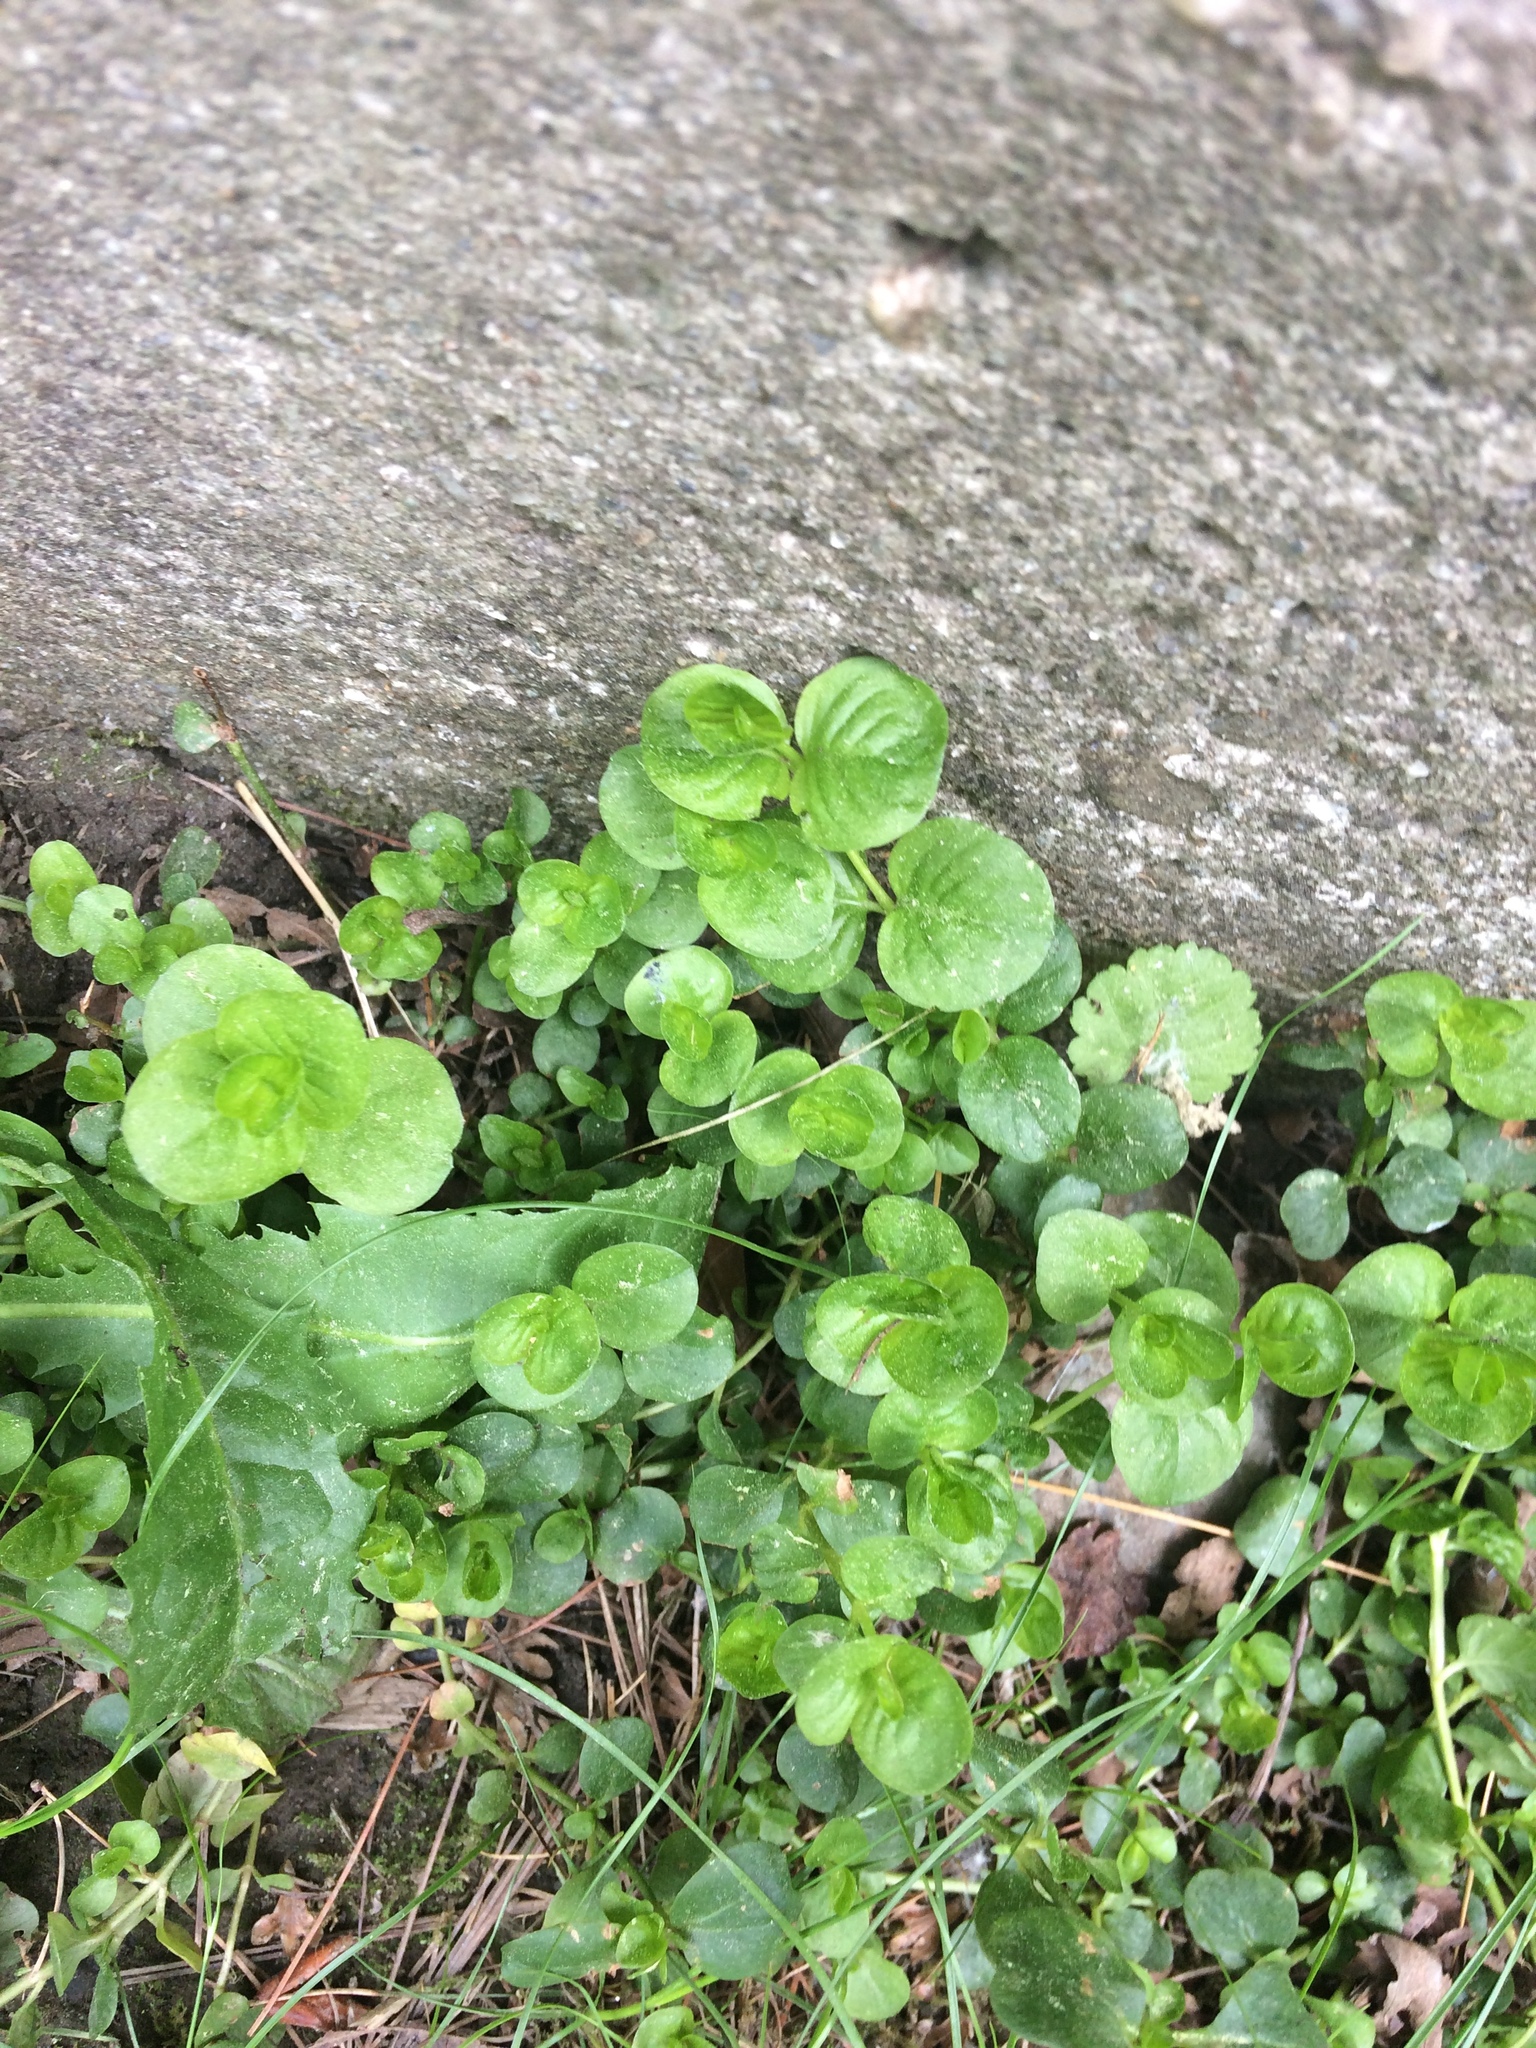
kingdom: Plantae
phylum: Tracheophyta
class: Magnoliopsida
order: Ericales
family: Primulaceae
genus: Lysimachia
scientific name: Lysimachia nummularia
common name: Moneywort
